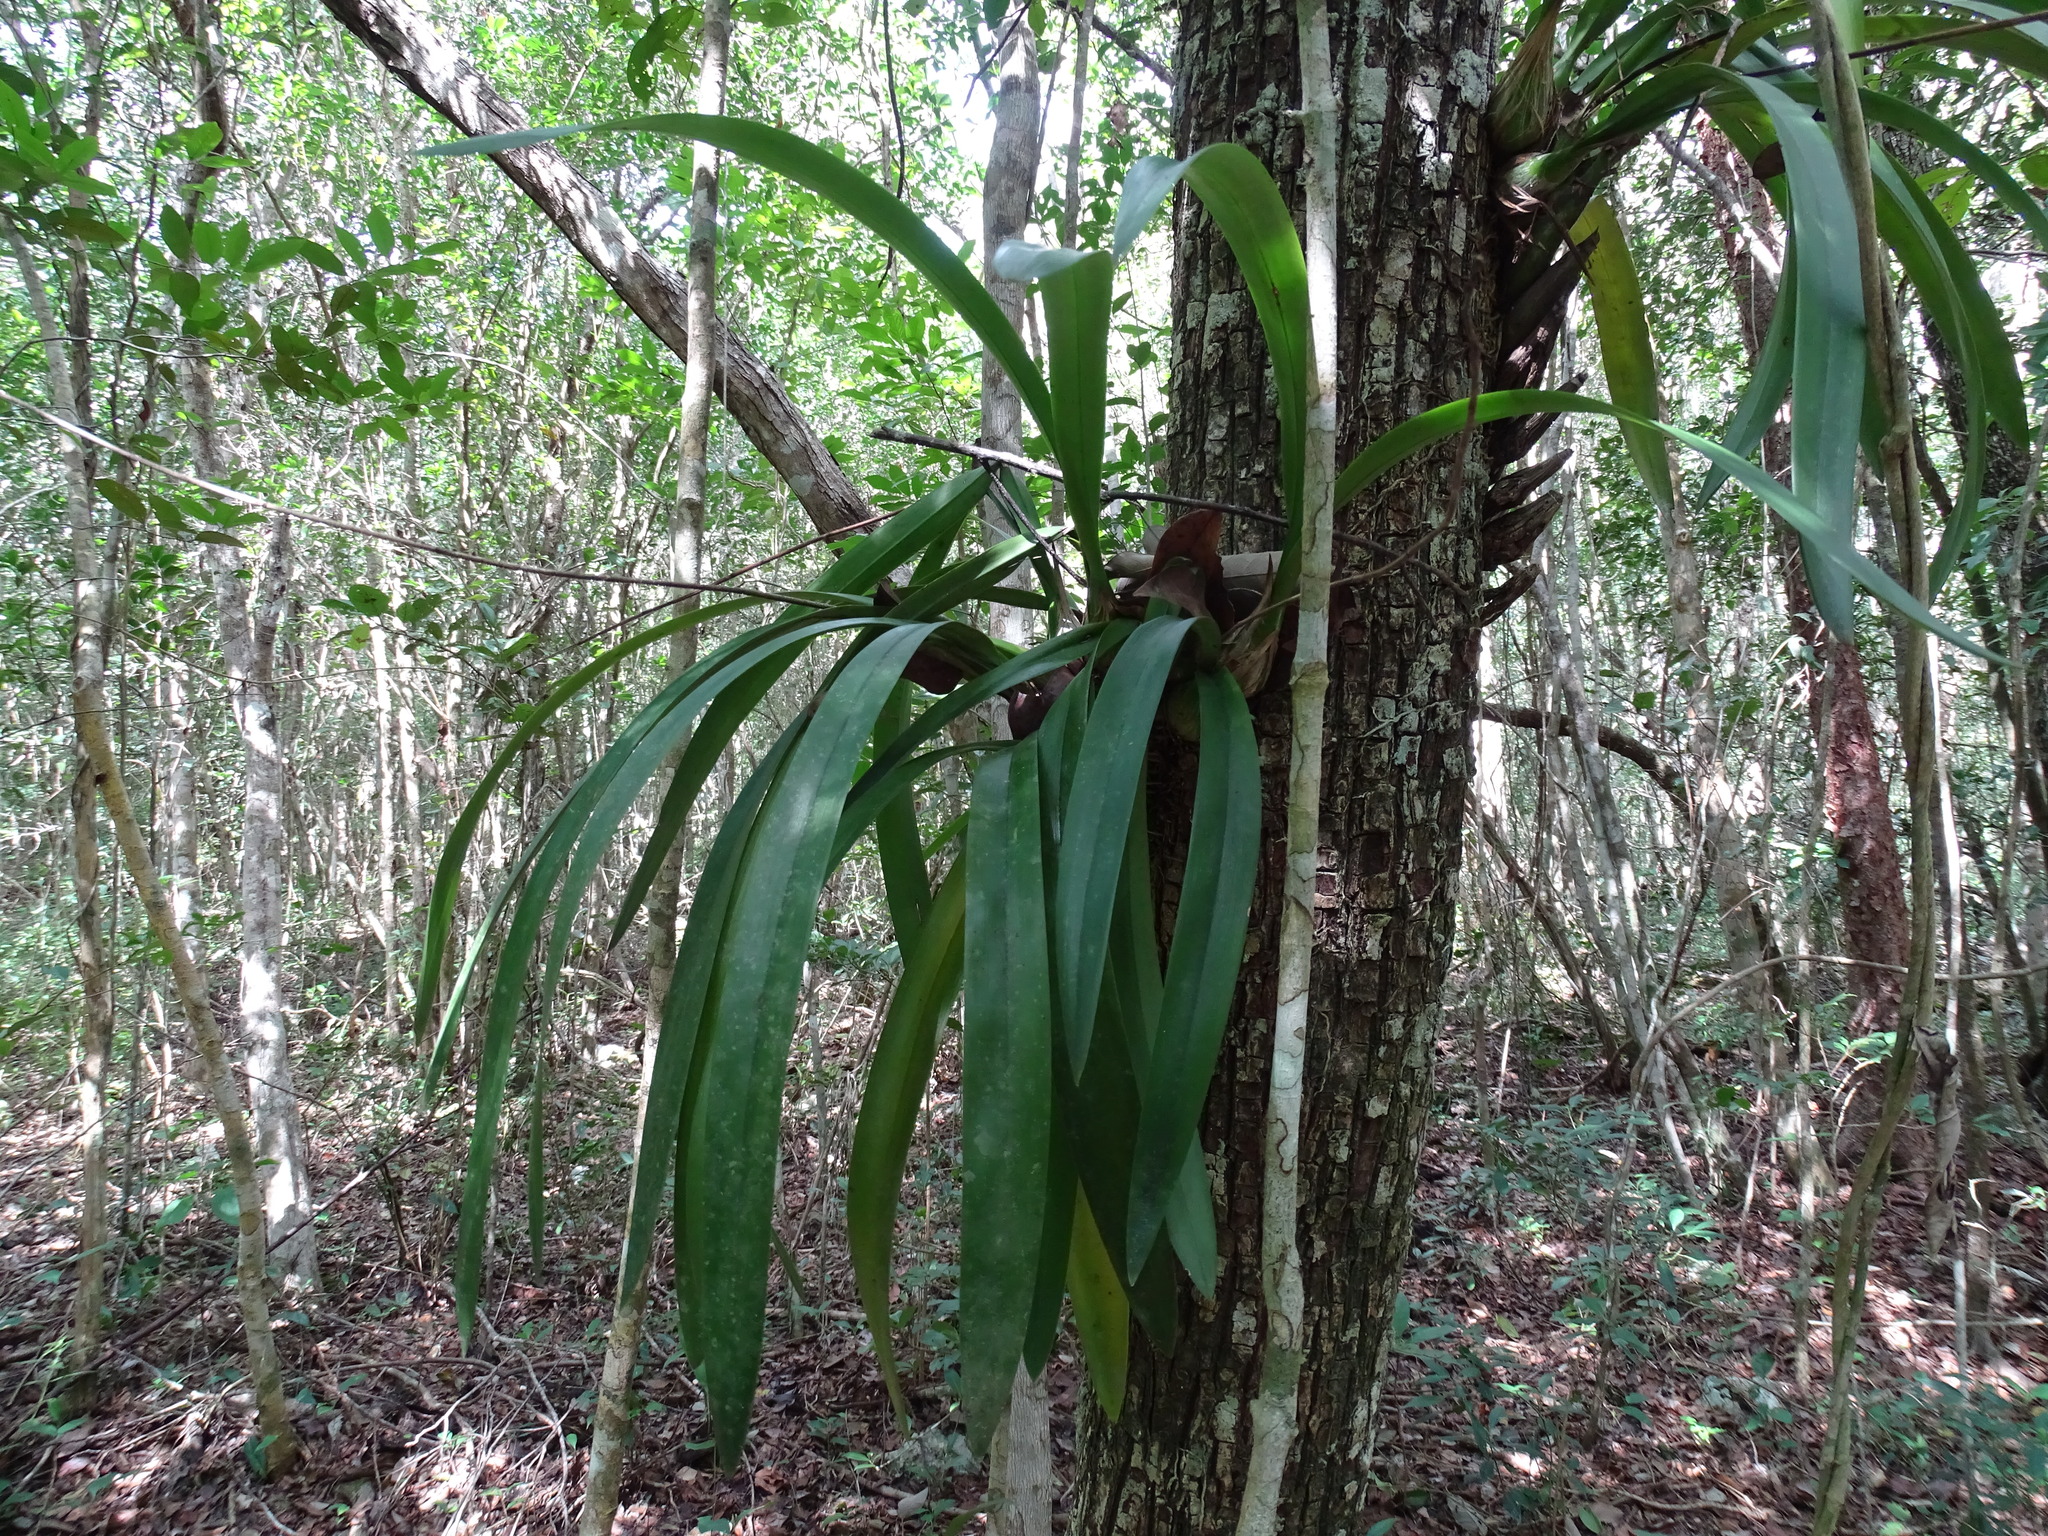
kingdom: Plantae
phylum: Tracheophyta
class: Liliopsida
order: Asparagales
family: Orchidaceae
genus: Encyclia
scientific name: Encyclia alata
